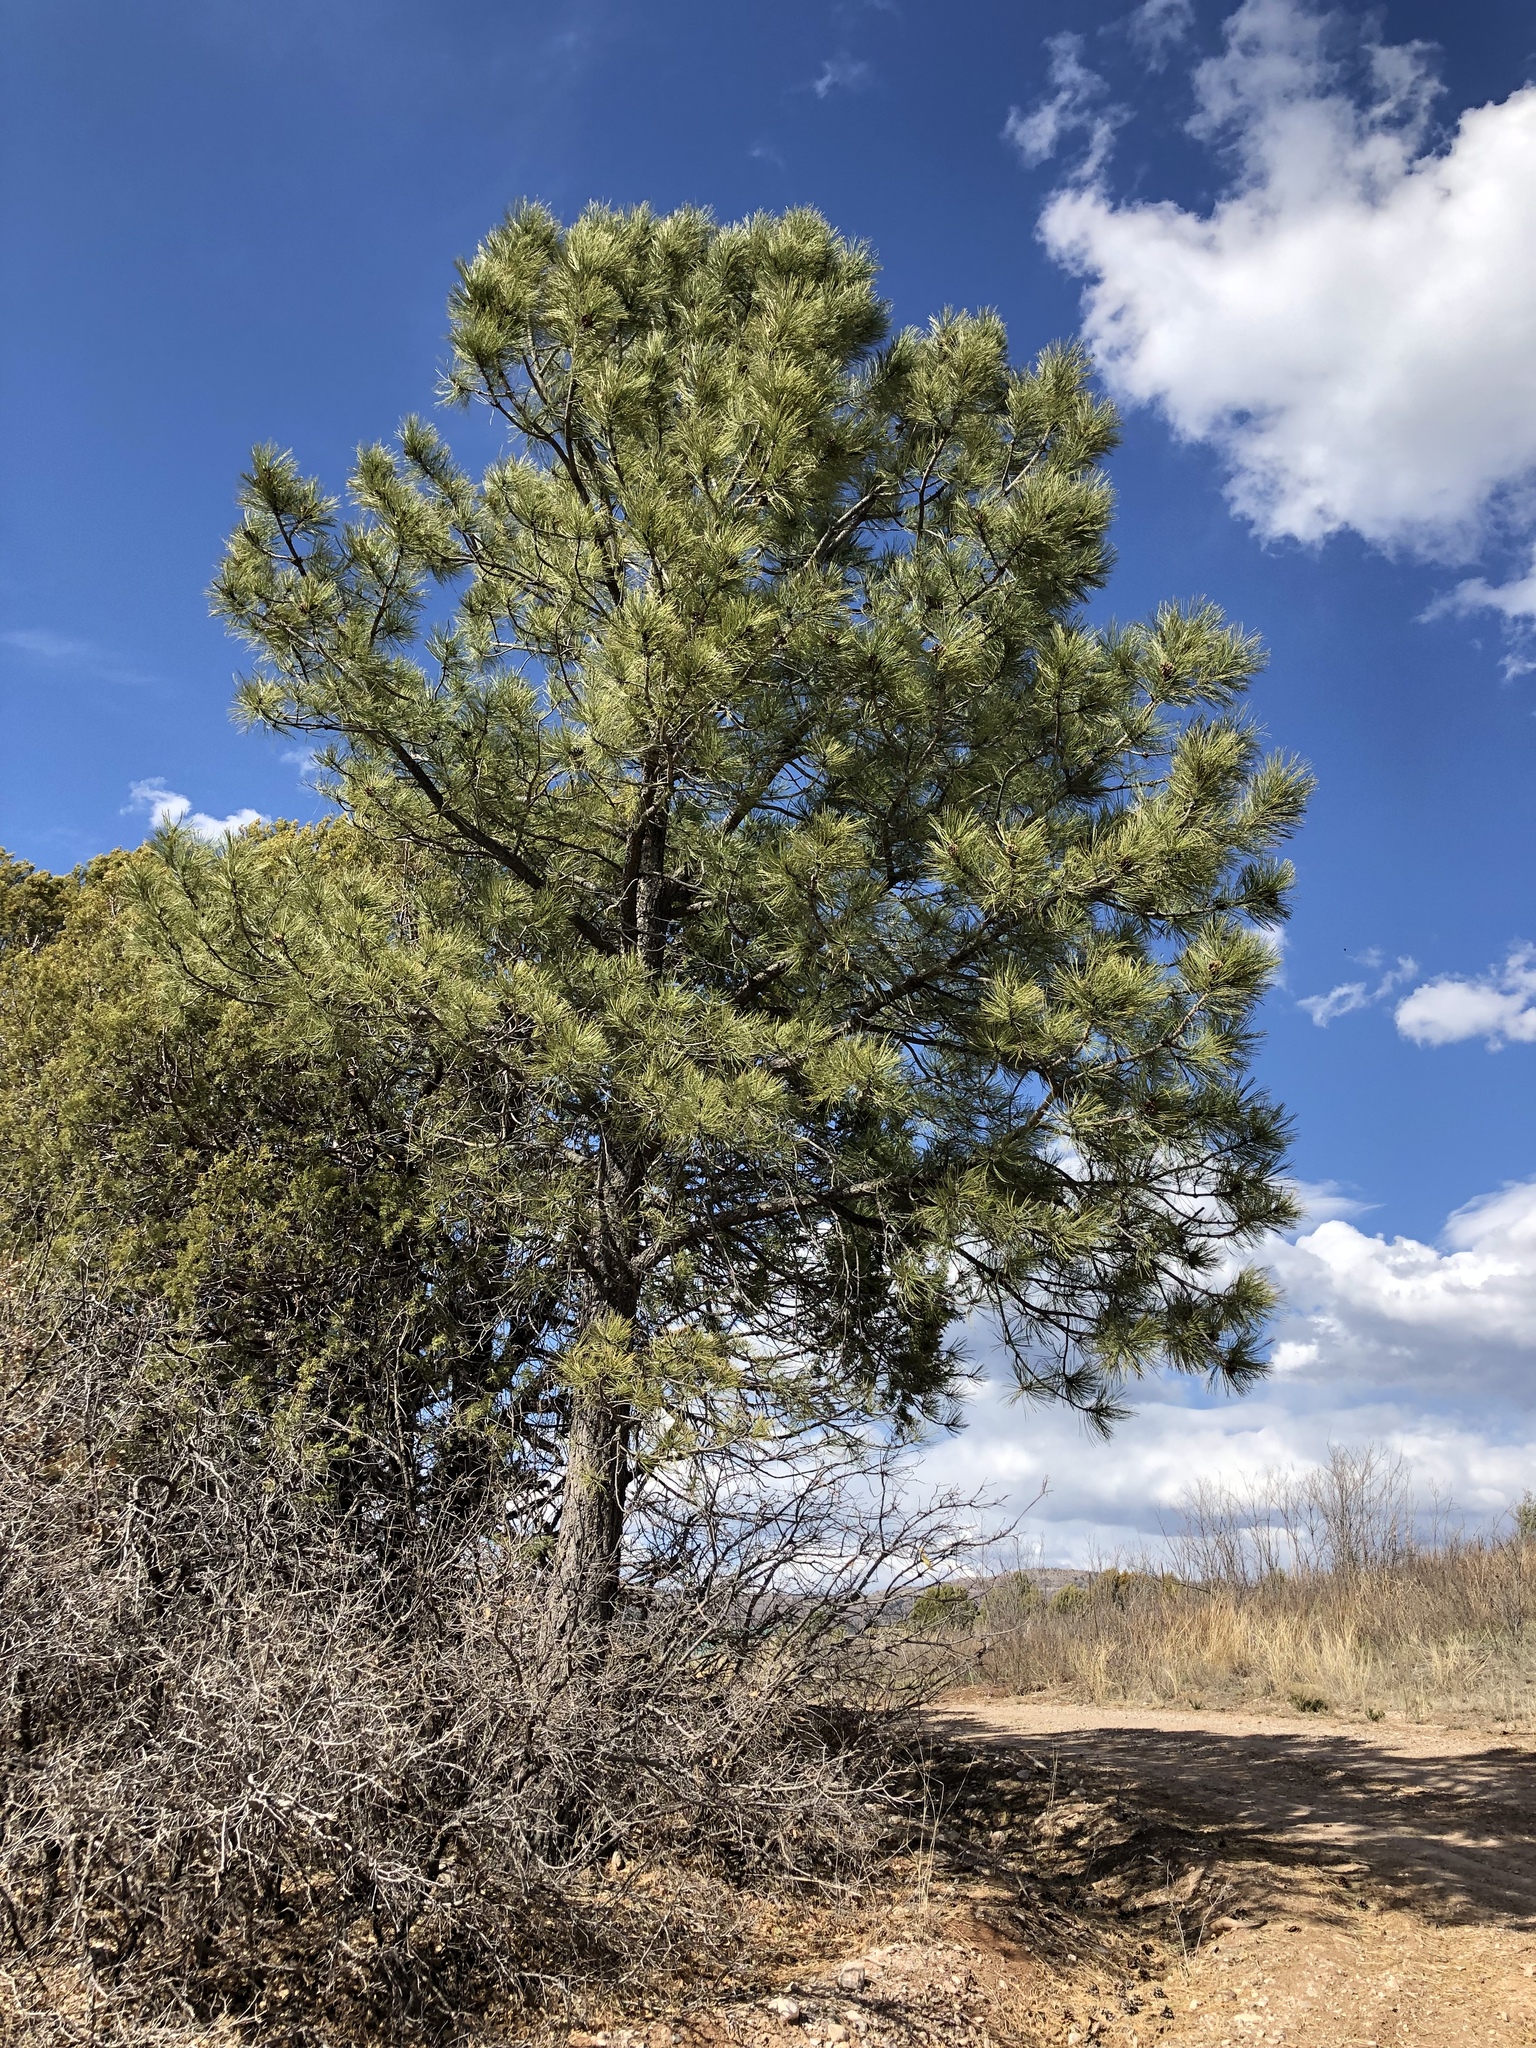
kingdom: Plantae
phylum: Tracheophyta
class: Pinopsida
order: Pinales
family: Pinaceae
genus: Pinus
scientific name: Pinus ponderosa
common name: Western yellow-pine
